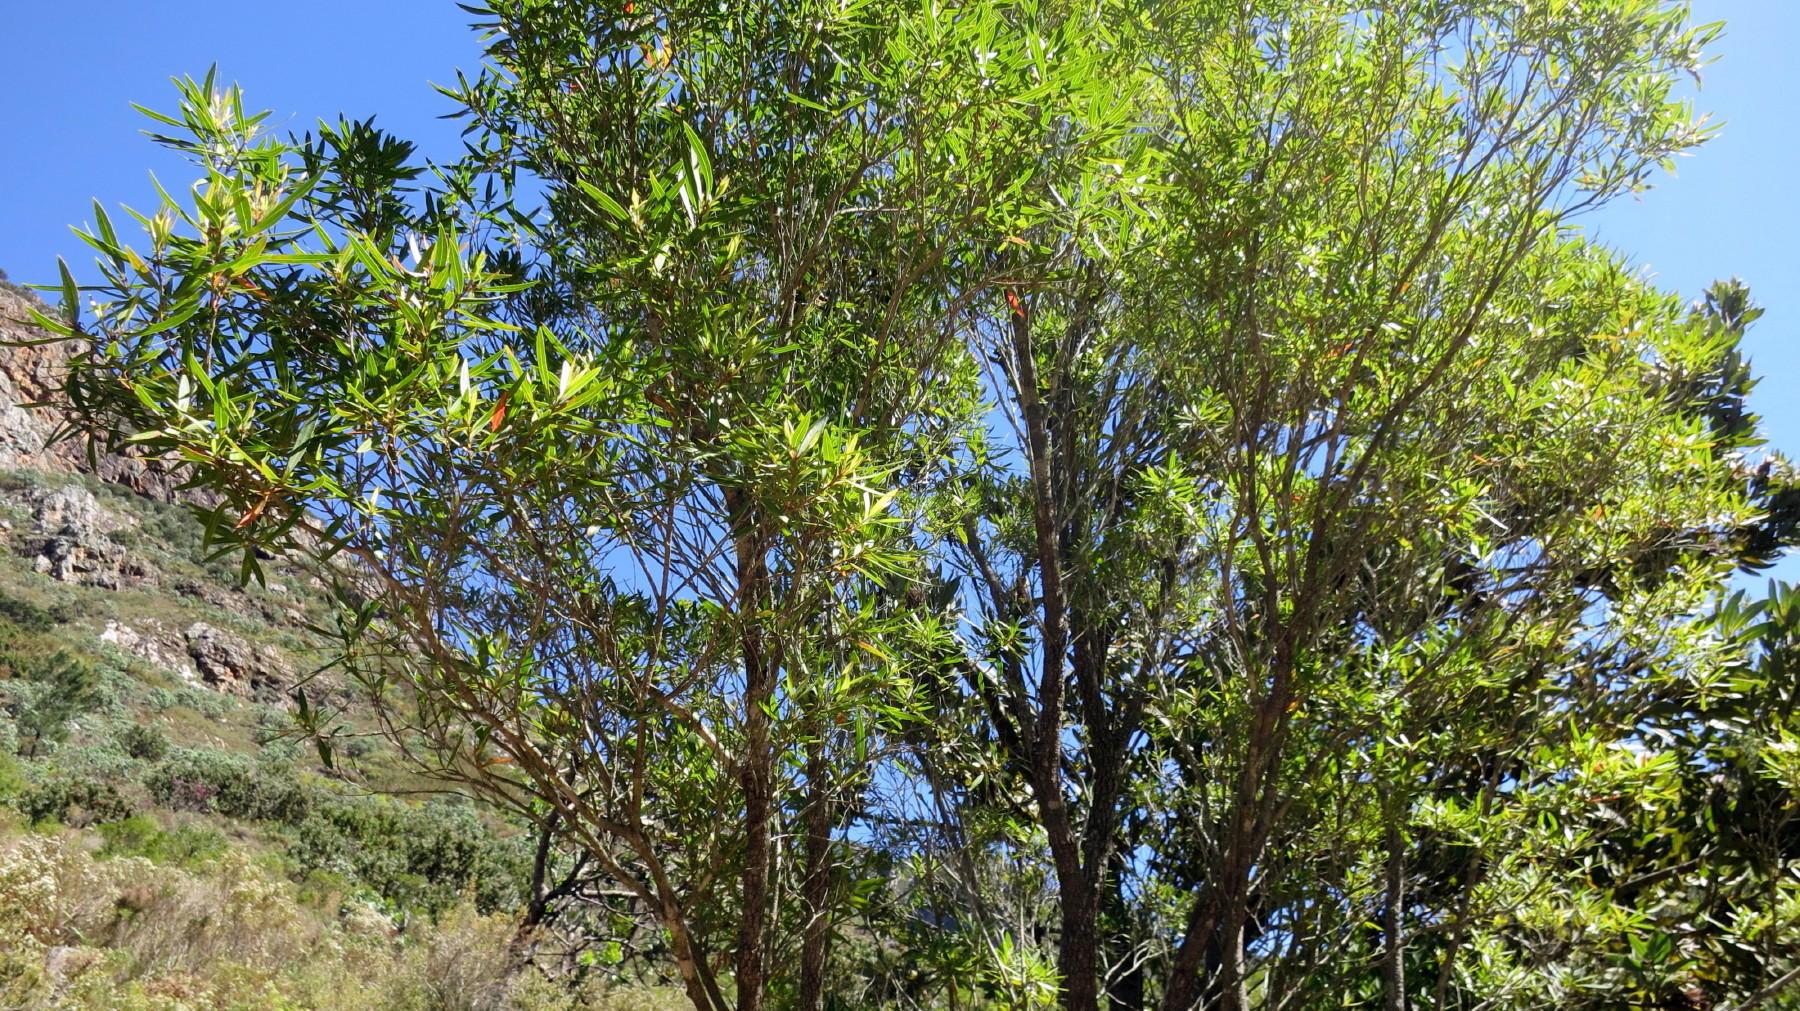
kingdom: Plantae
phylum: Tracheophyta
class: Magnoliopsida
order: Myrtales
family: Myrtaceae
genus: Callistemon
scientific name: Callistemon lanceolatus
